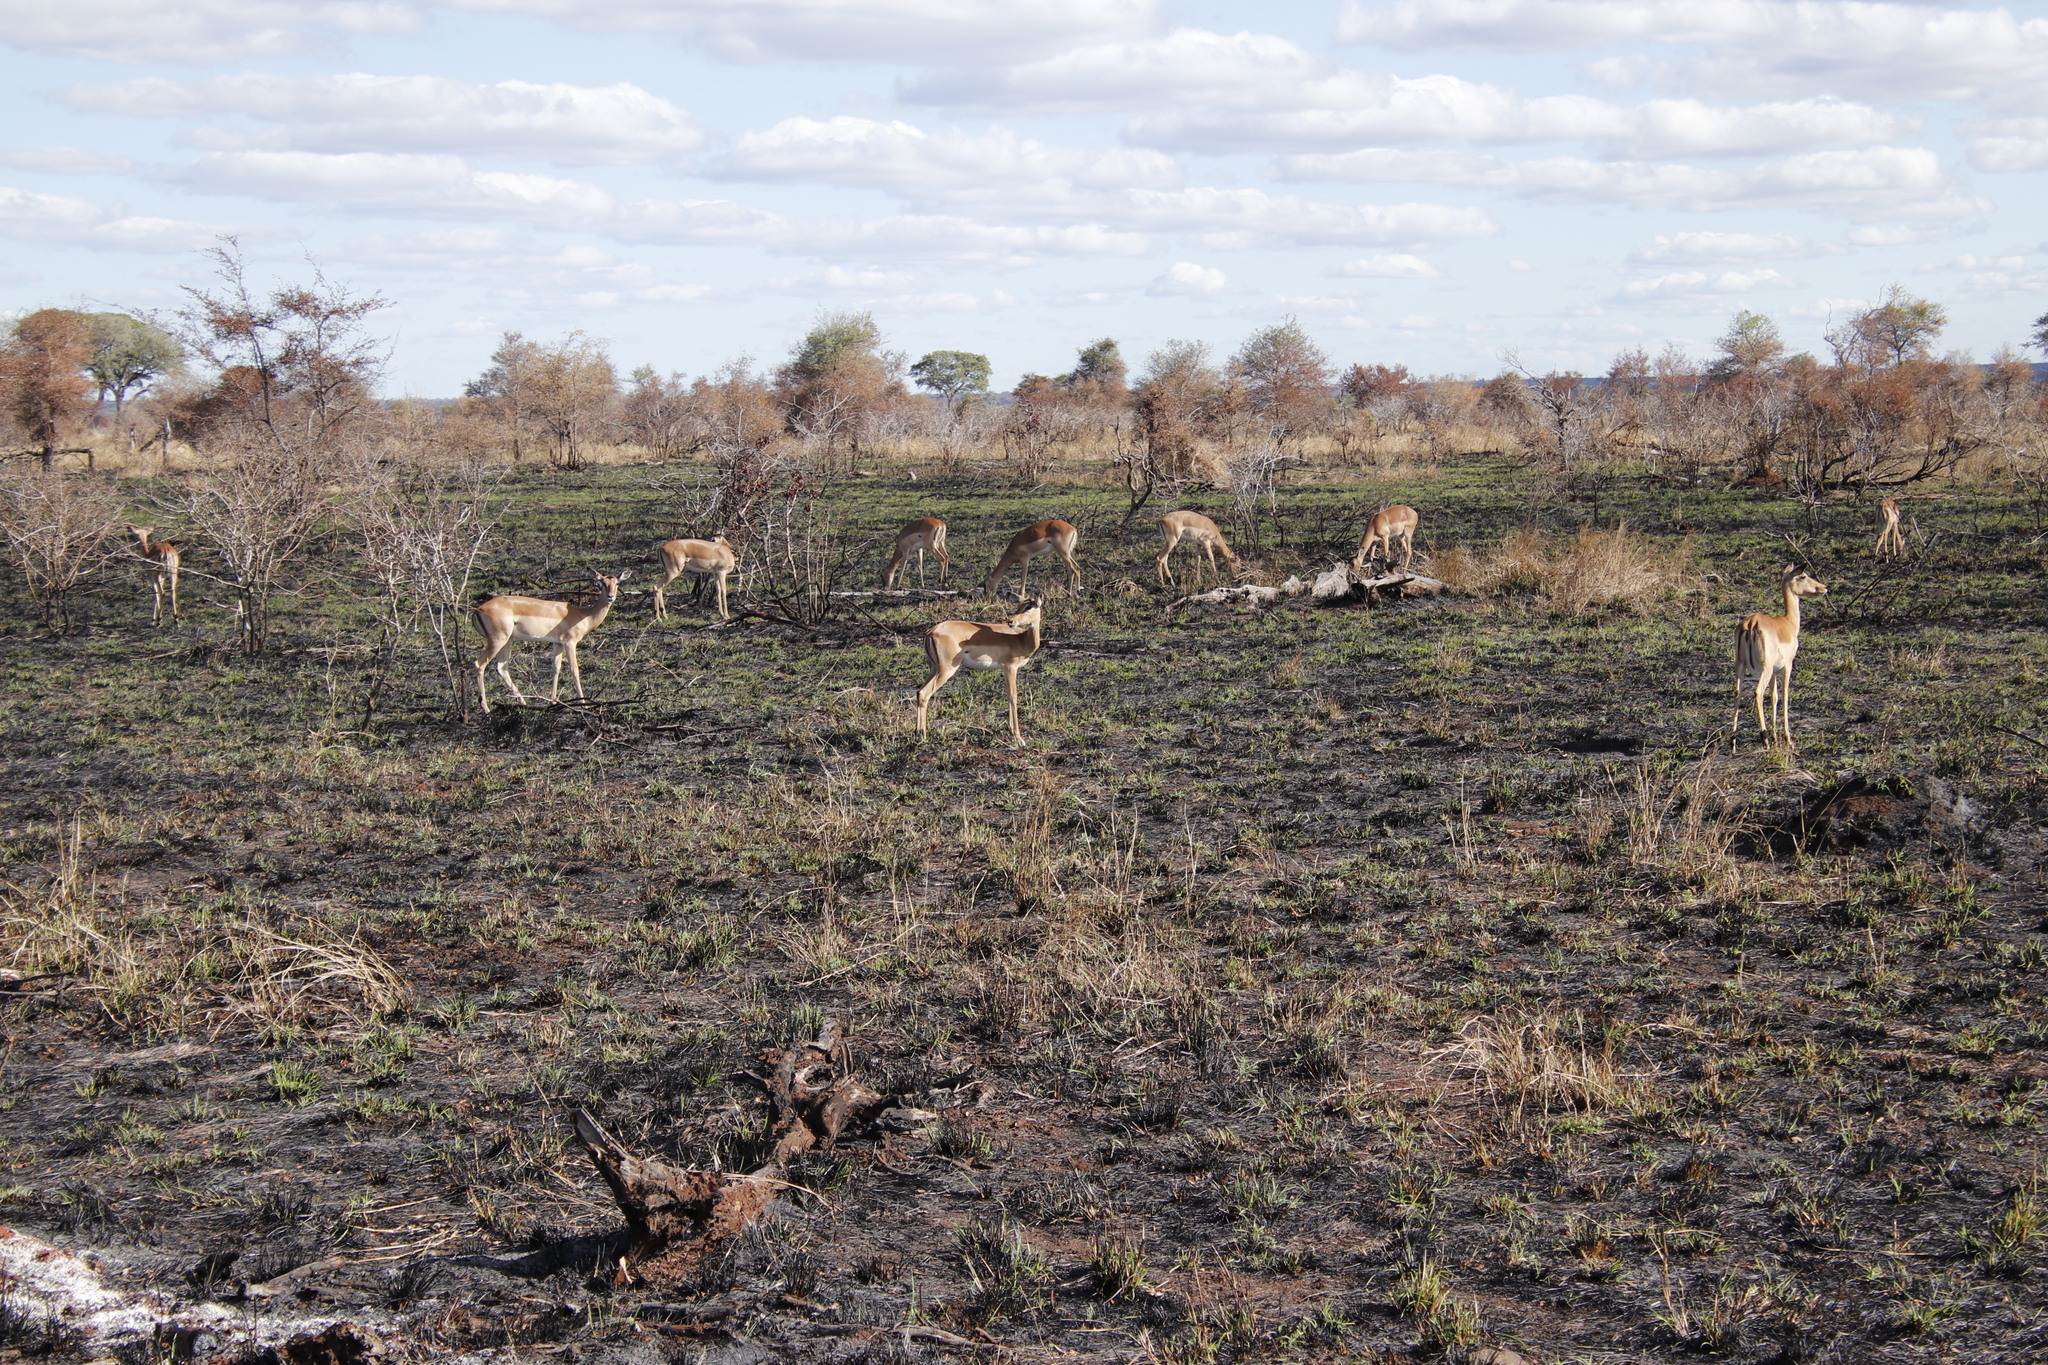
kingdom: Animalia
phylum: Chordata
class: Mammalia
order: Artiodactyla
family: Bovidae
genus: Aepyceros
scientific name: Aepyceros melampus
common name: Impala
